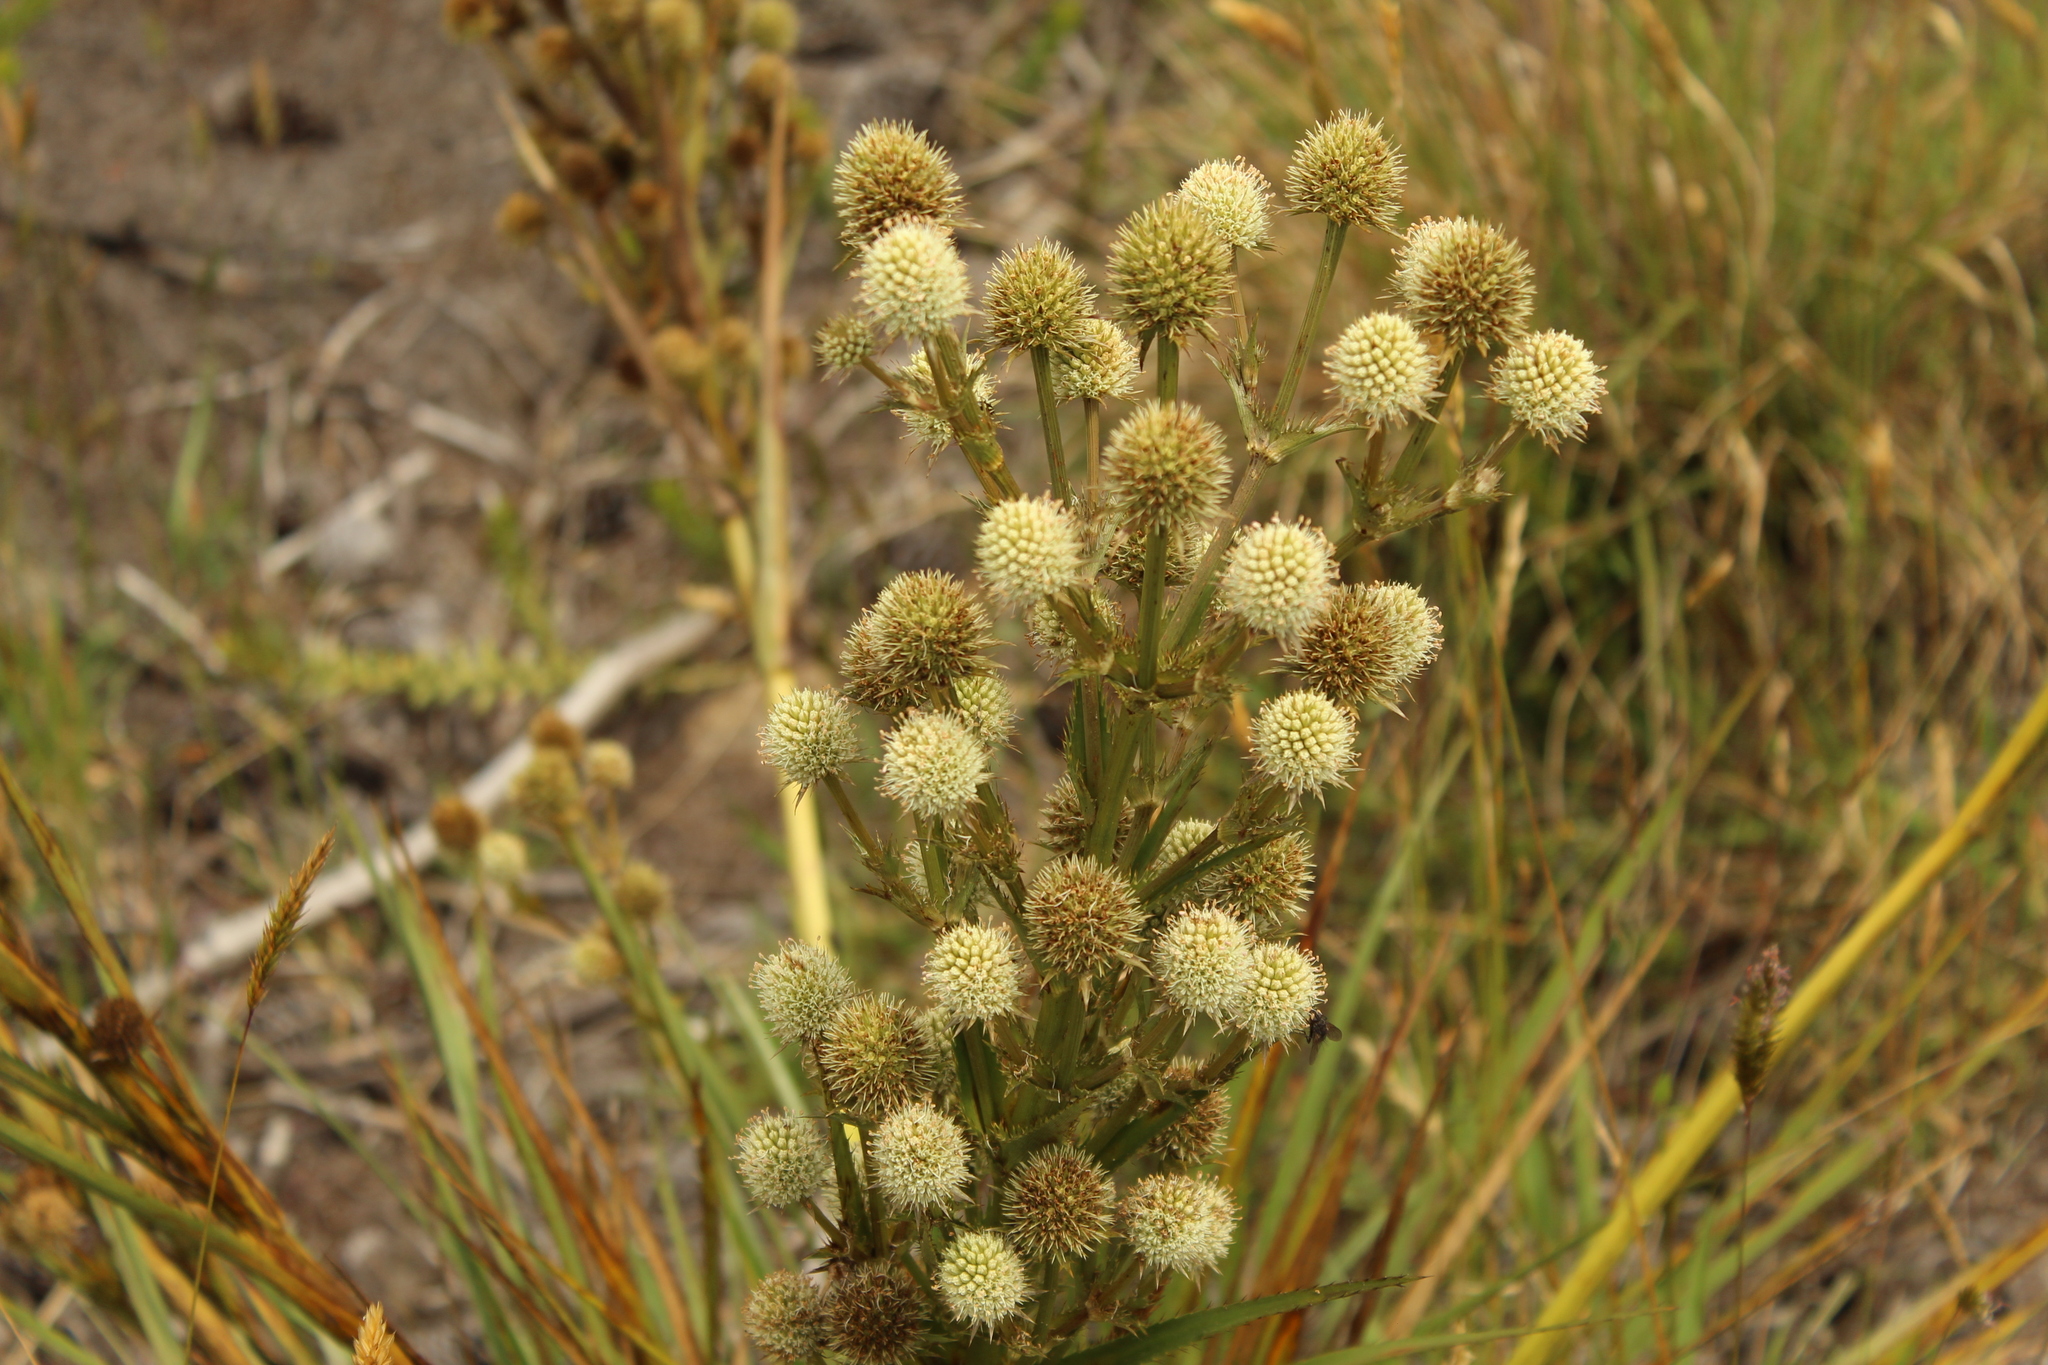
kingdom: Plantae
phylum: Tracheophyta
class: Magnoliopsida
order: Apiales
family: Apiaceae
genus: Eryngium
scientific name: Eryngium humboldtii
